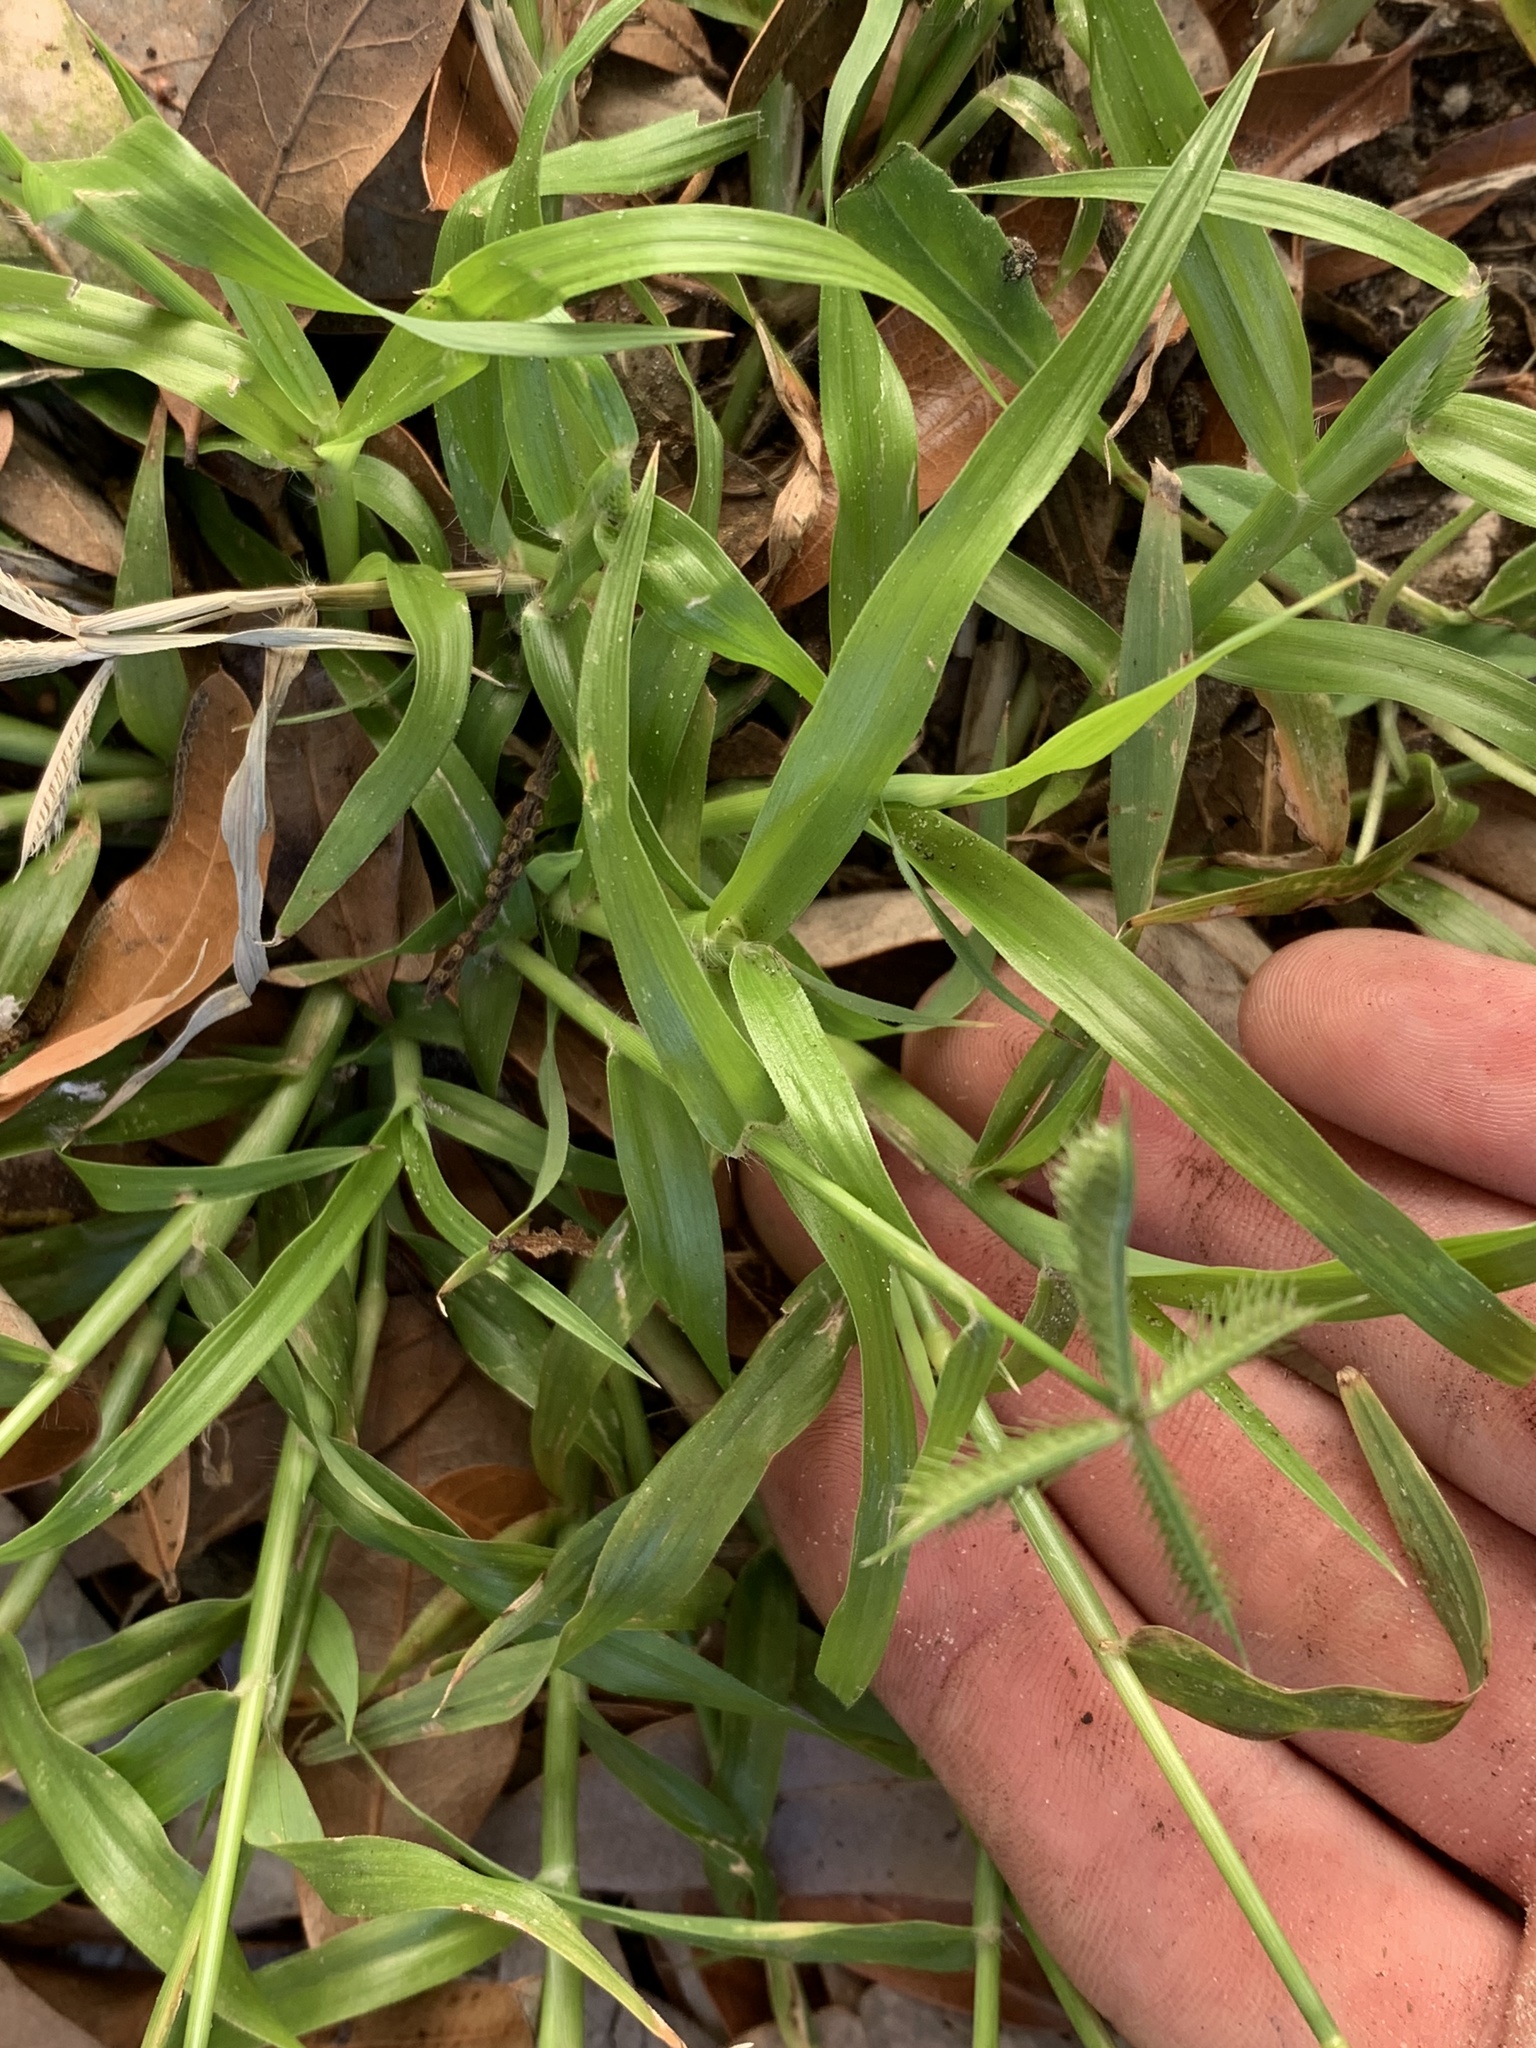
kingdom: Plantae
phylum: Tracheophyta
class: Liliopsida
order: Poales
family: Poaceae
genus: Dactyloctenium
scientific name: Dactyloctenium aegyptium
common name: Egyptian grass
